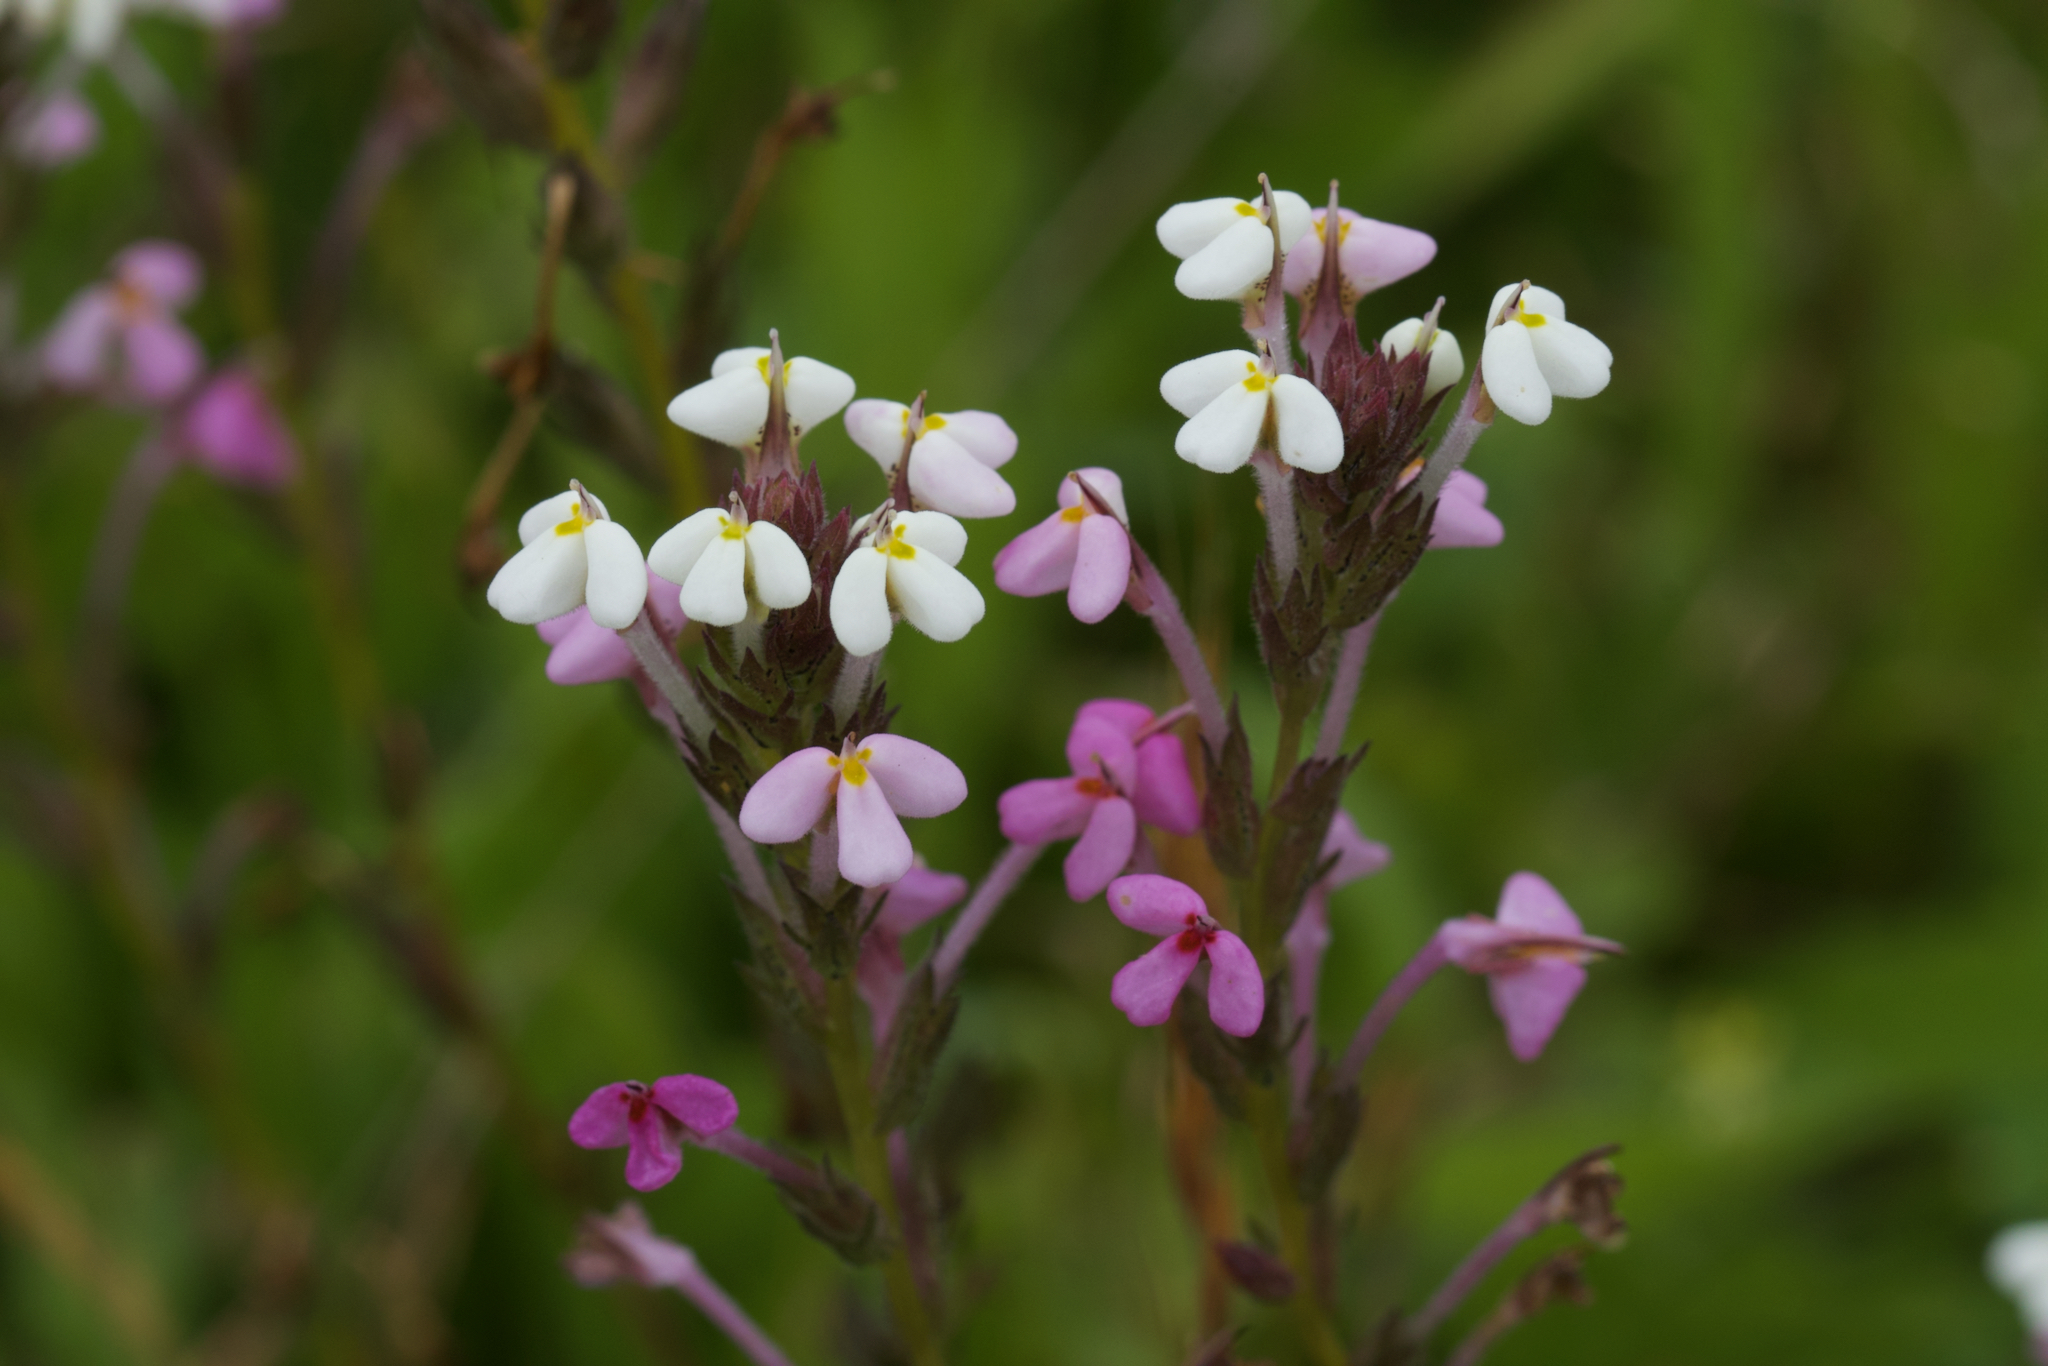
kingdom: Plantae
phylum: Tracheophyta
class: Magnoliopsida
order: Lamiales
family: Orobanchaceae
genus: Triphysaria
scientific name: Triphysaria versicolor
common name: Bearded false owl-clover
